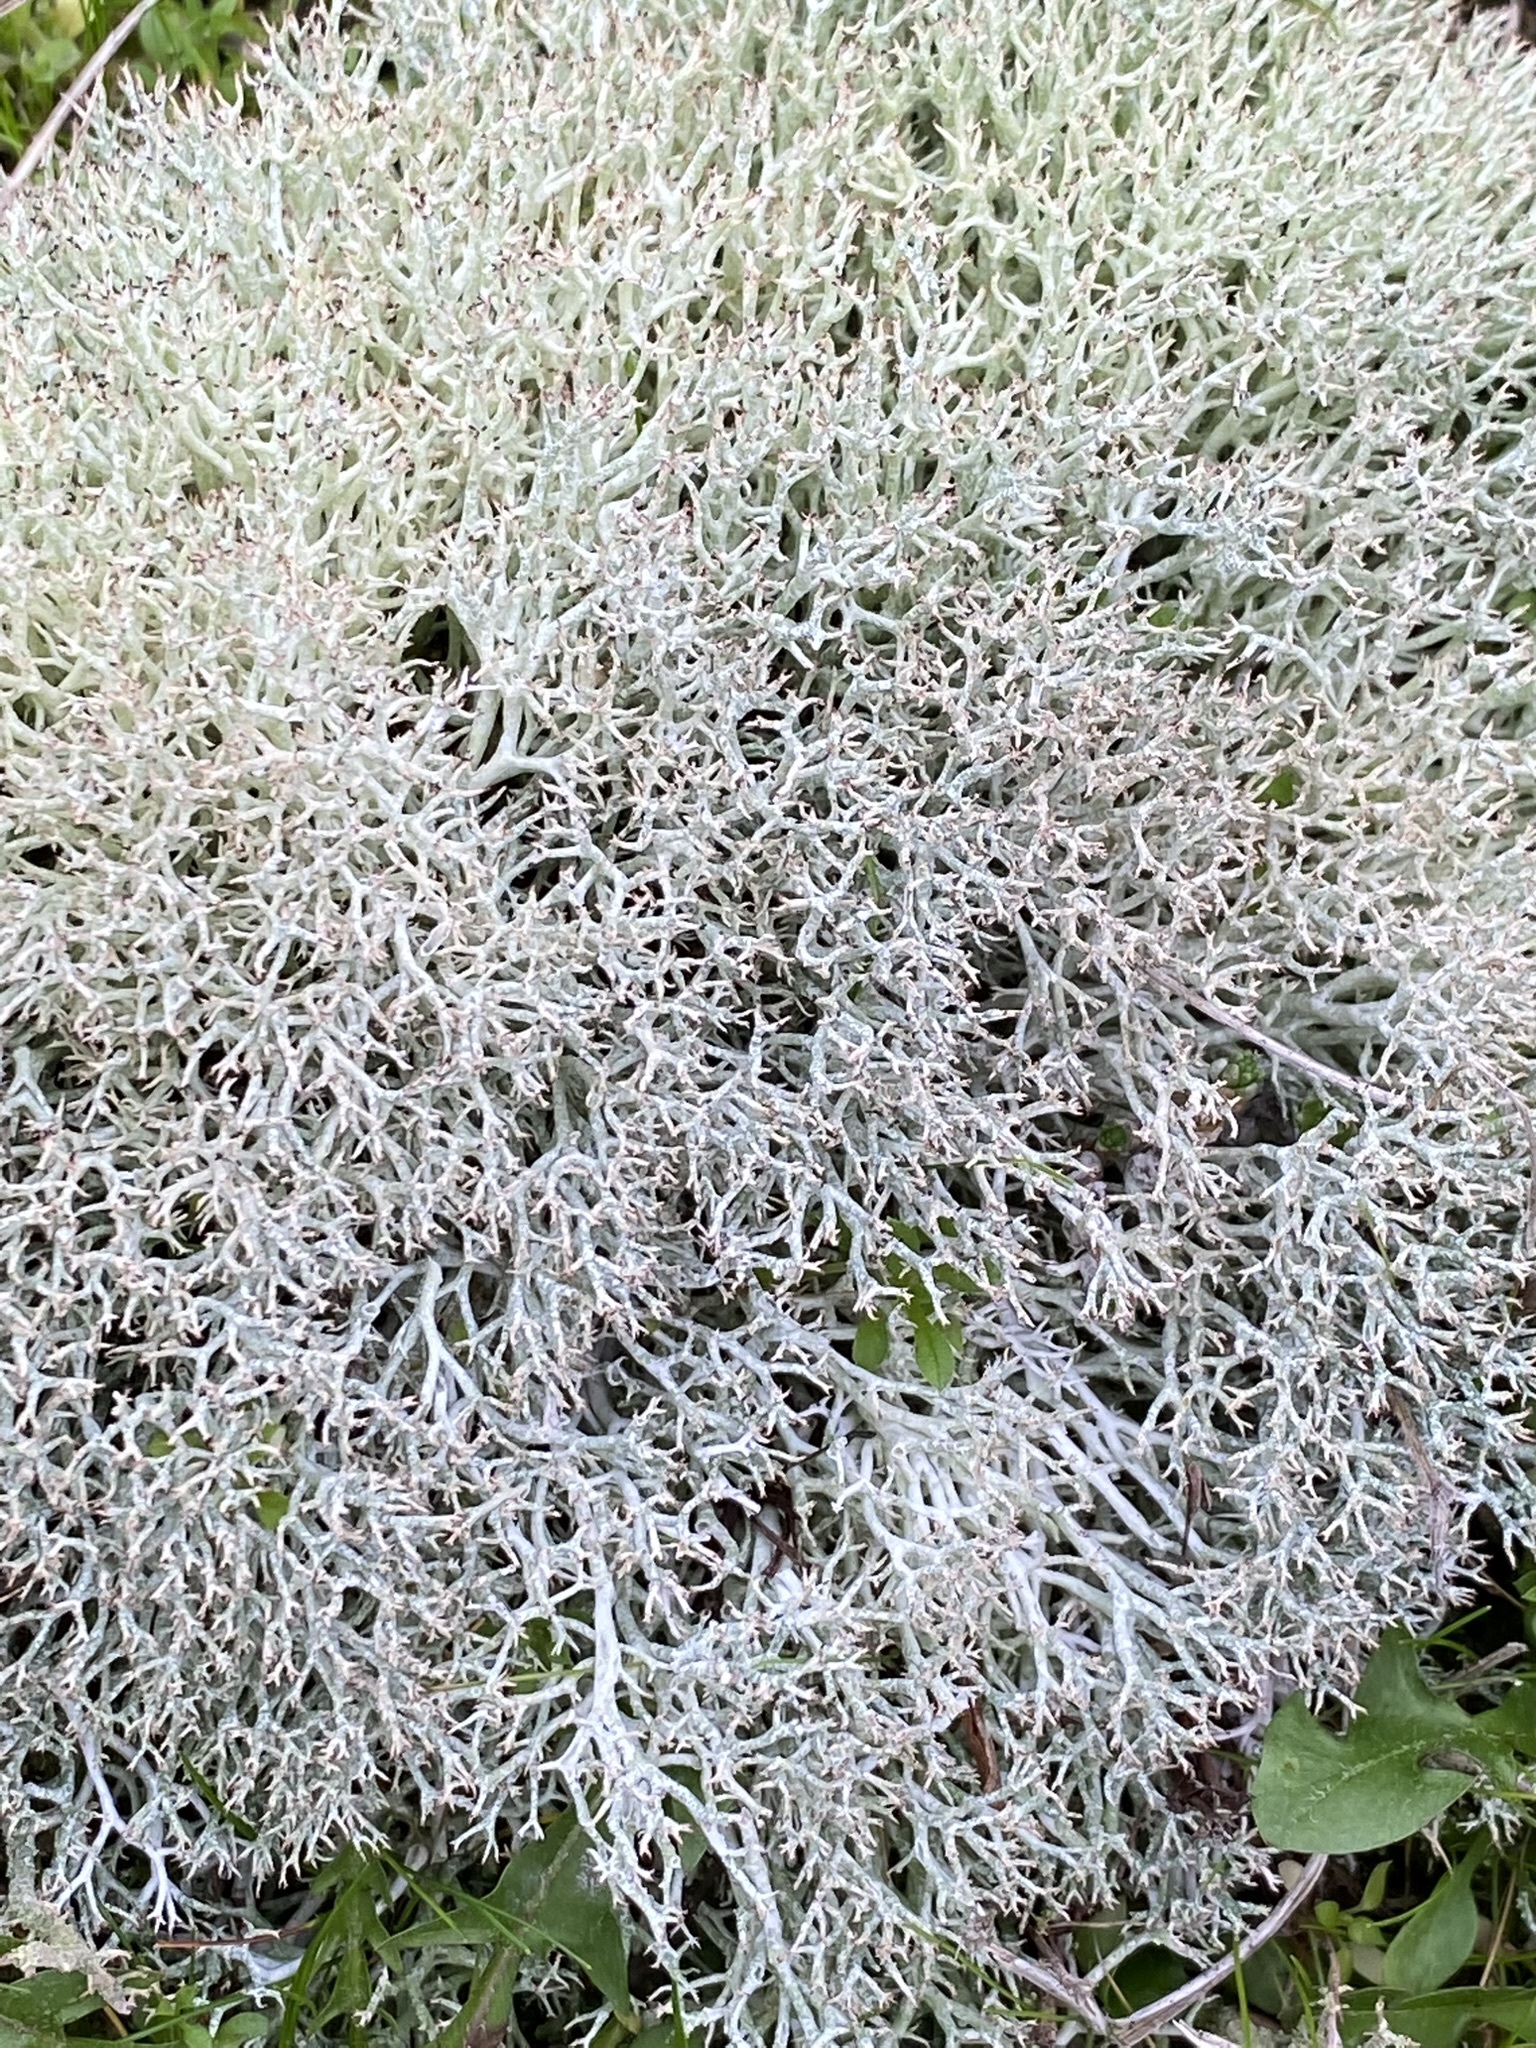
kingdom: Fungi
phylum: Ascomycota
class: Lecanoromycetes
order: Lecanorales
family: Cladoniaceae
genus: Cladonia
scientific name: Cladonia rangiformis
